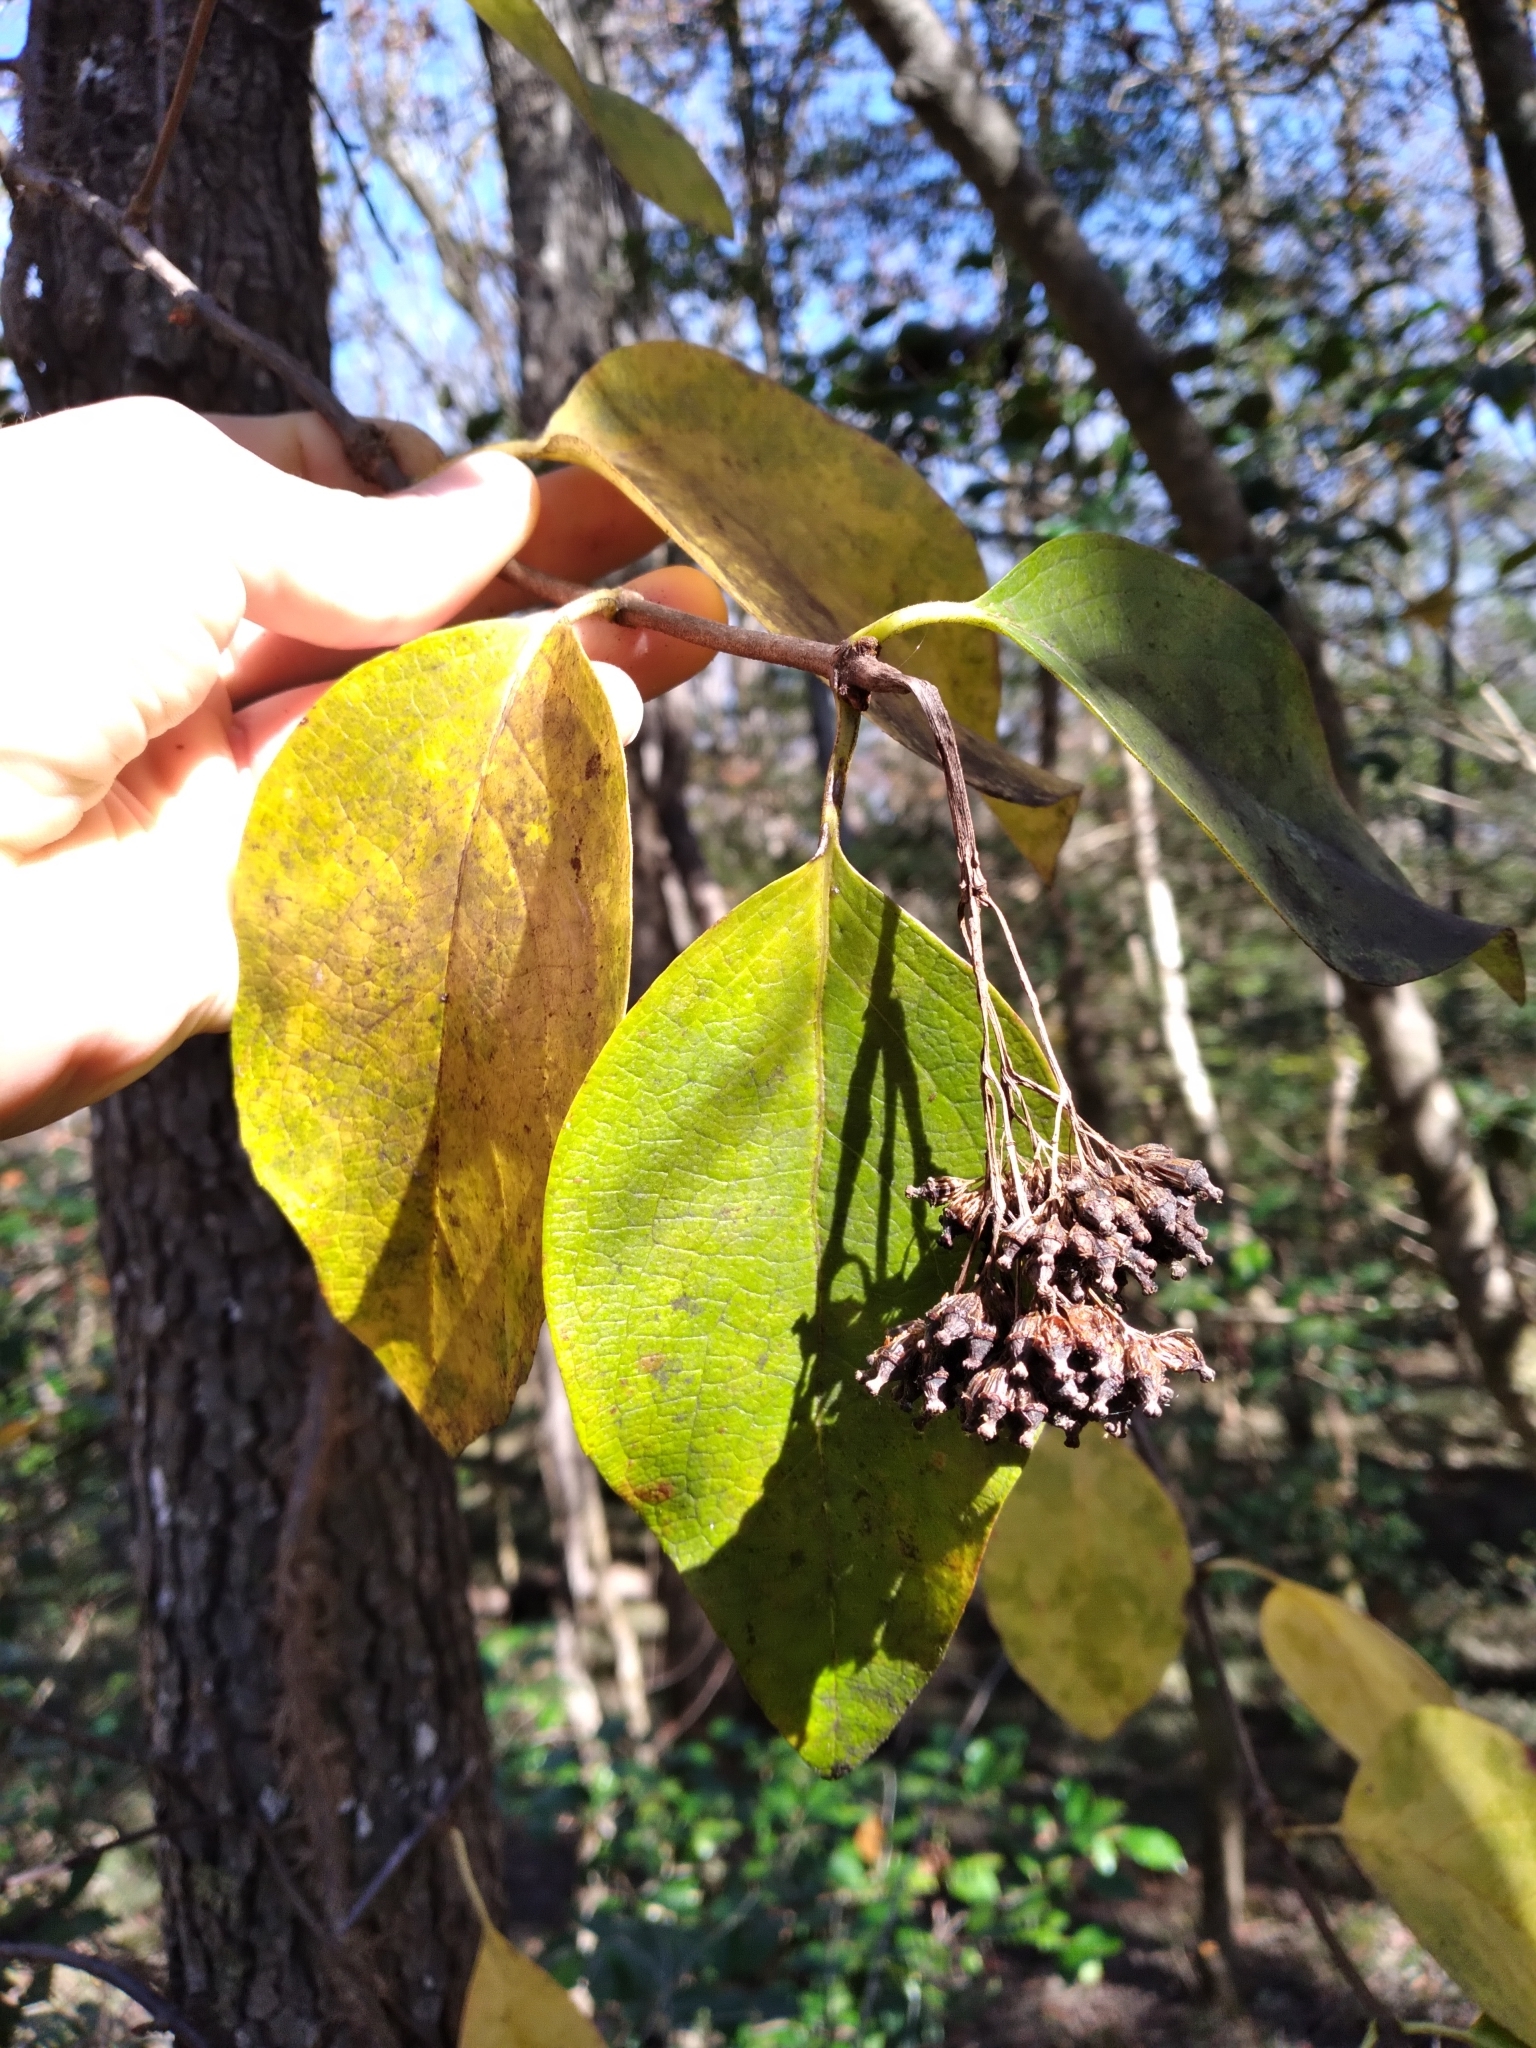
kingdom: Plantae
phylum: Tracheophyta
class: Magnoliopsida
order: Cornales
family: Hydrangeaceae
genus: Hydrangea
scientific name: Hydrangea barbara
